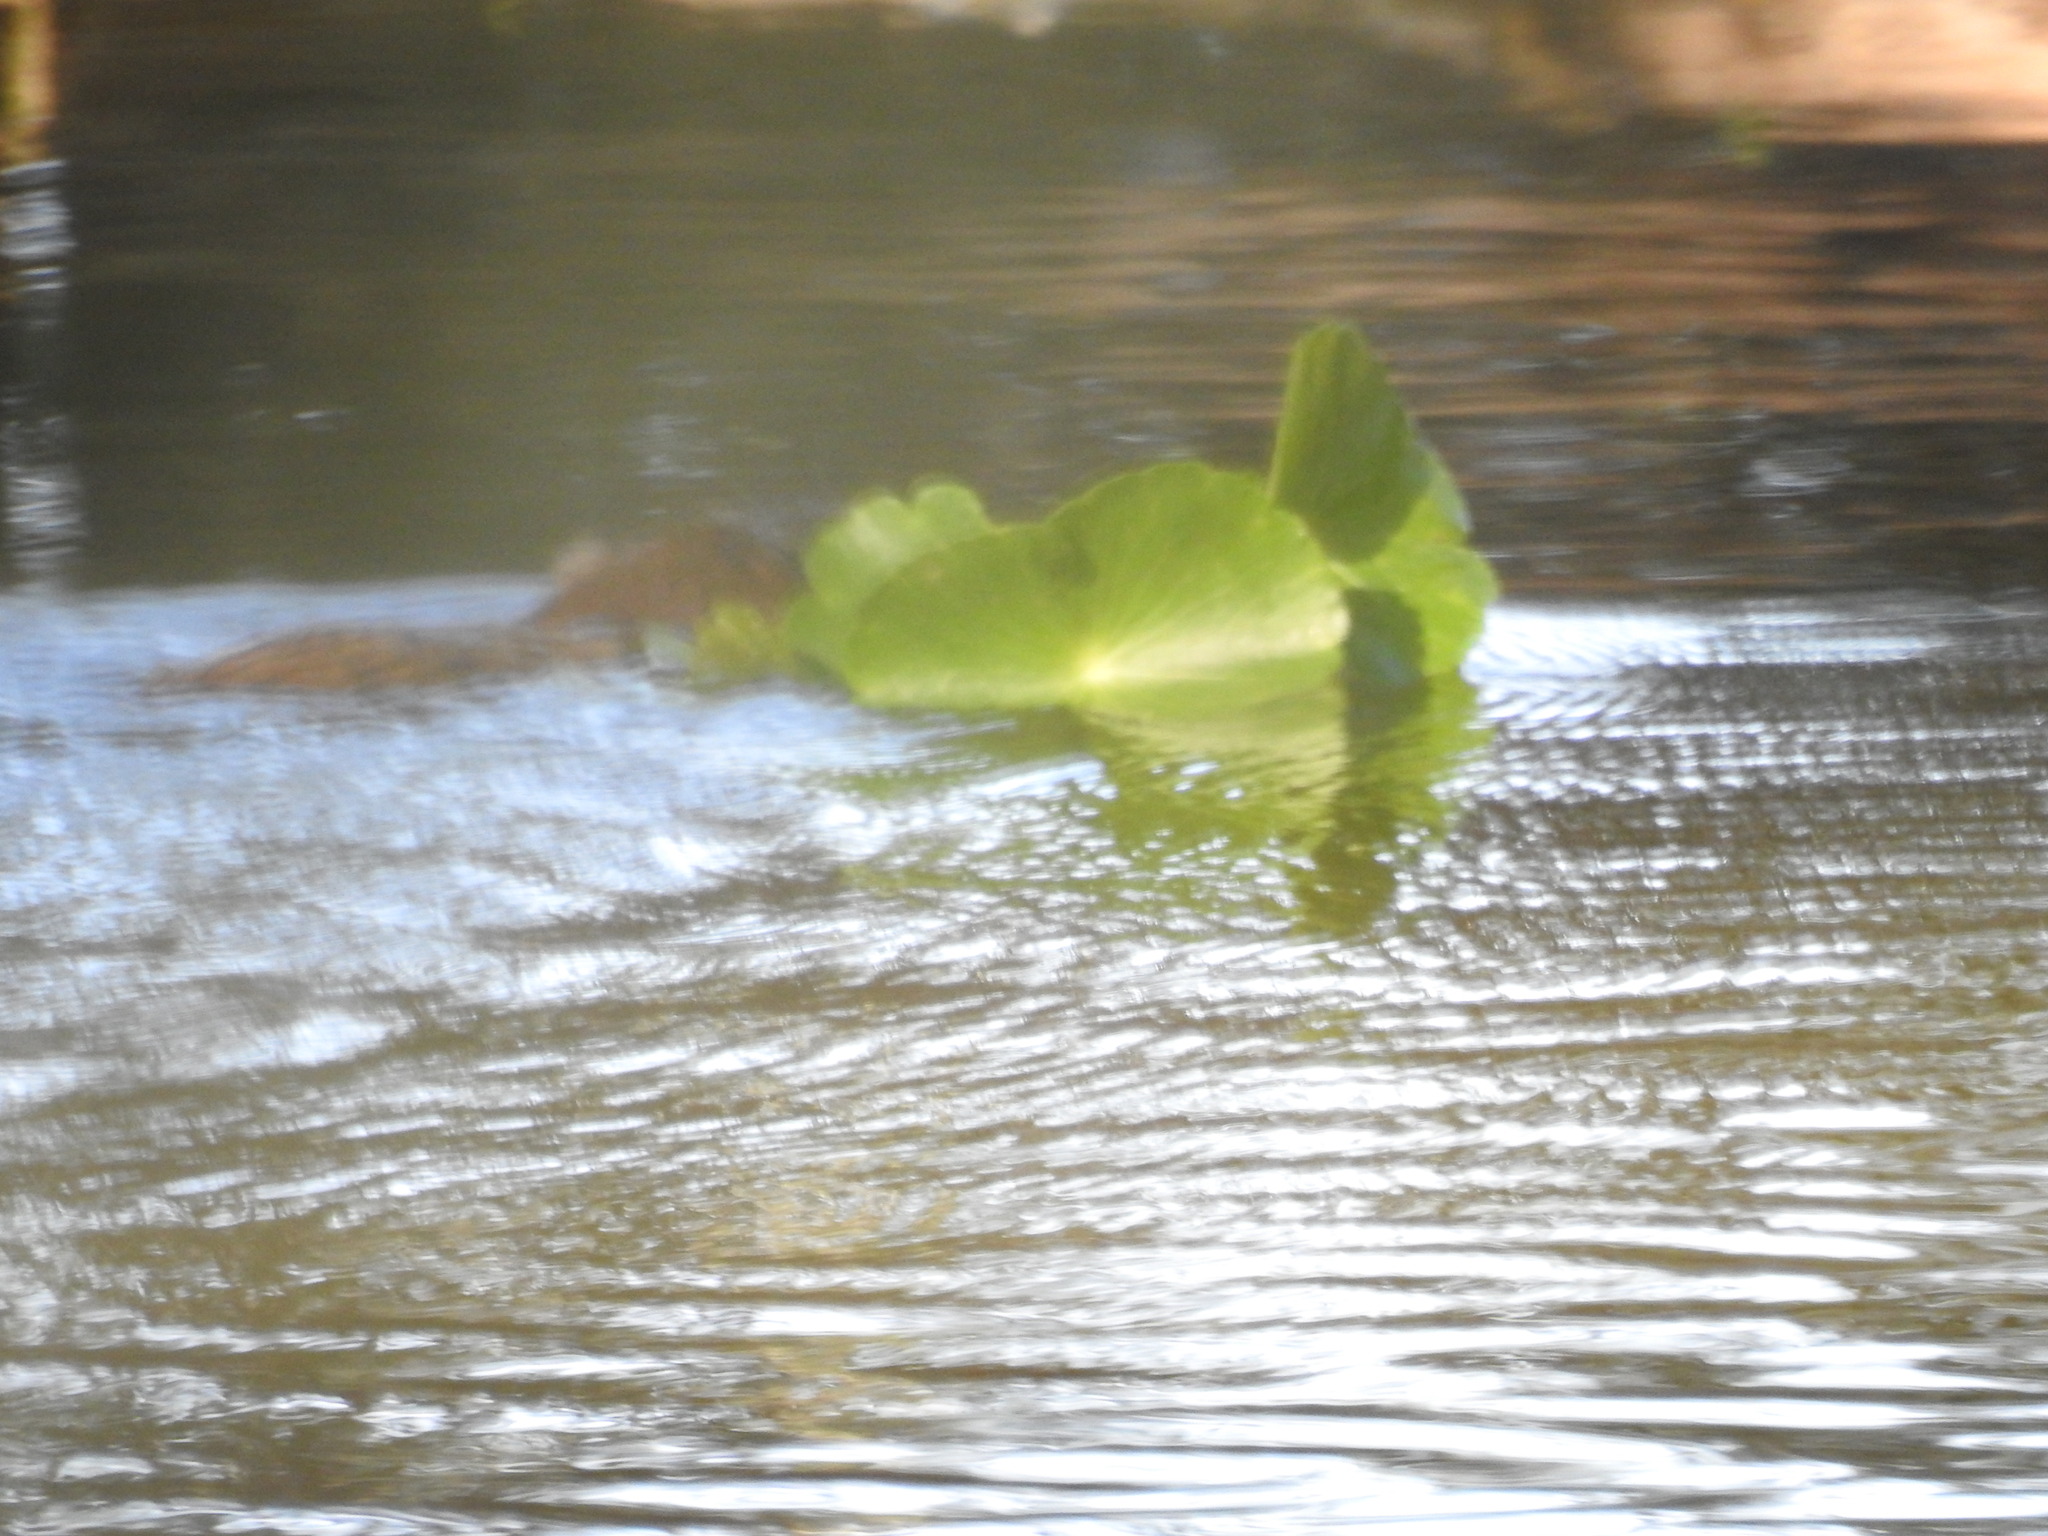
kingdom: Animalia
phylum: Chordata
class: Mammalia
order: Rodentia
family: Cricetidae
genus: Ondatra
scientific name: Ondatra zibethicus
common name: Muskrat
